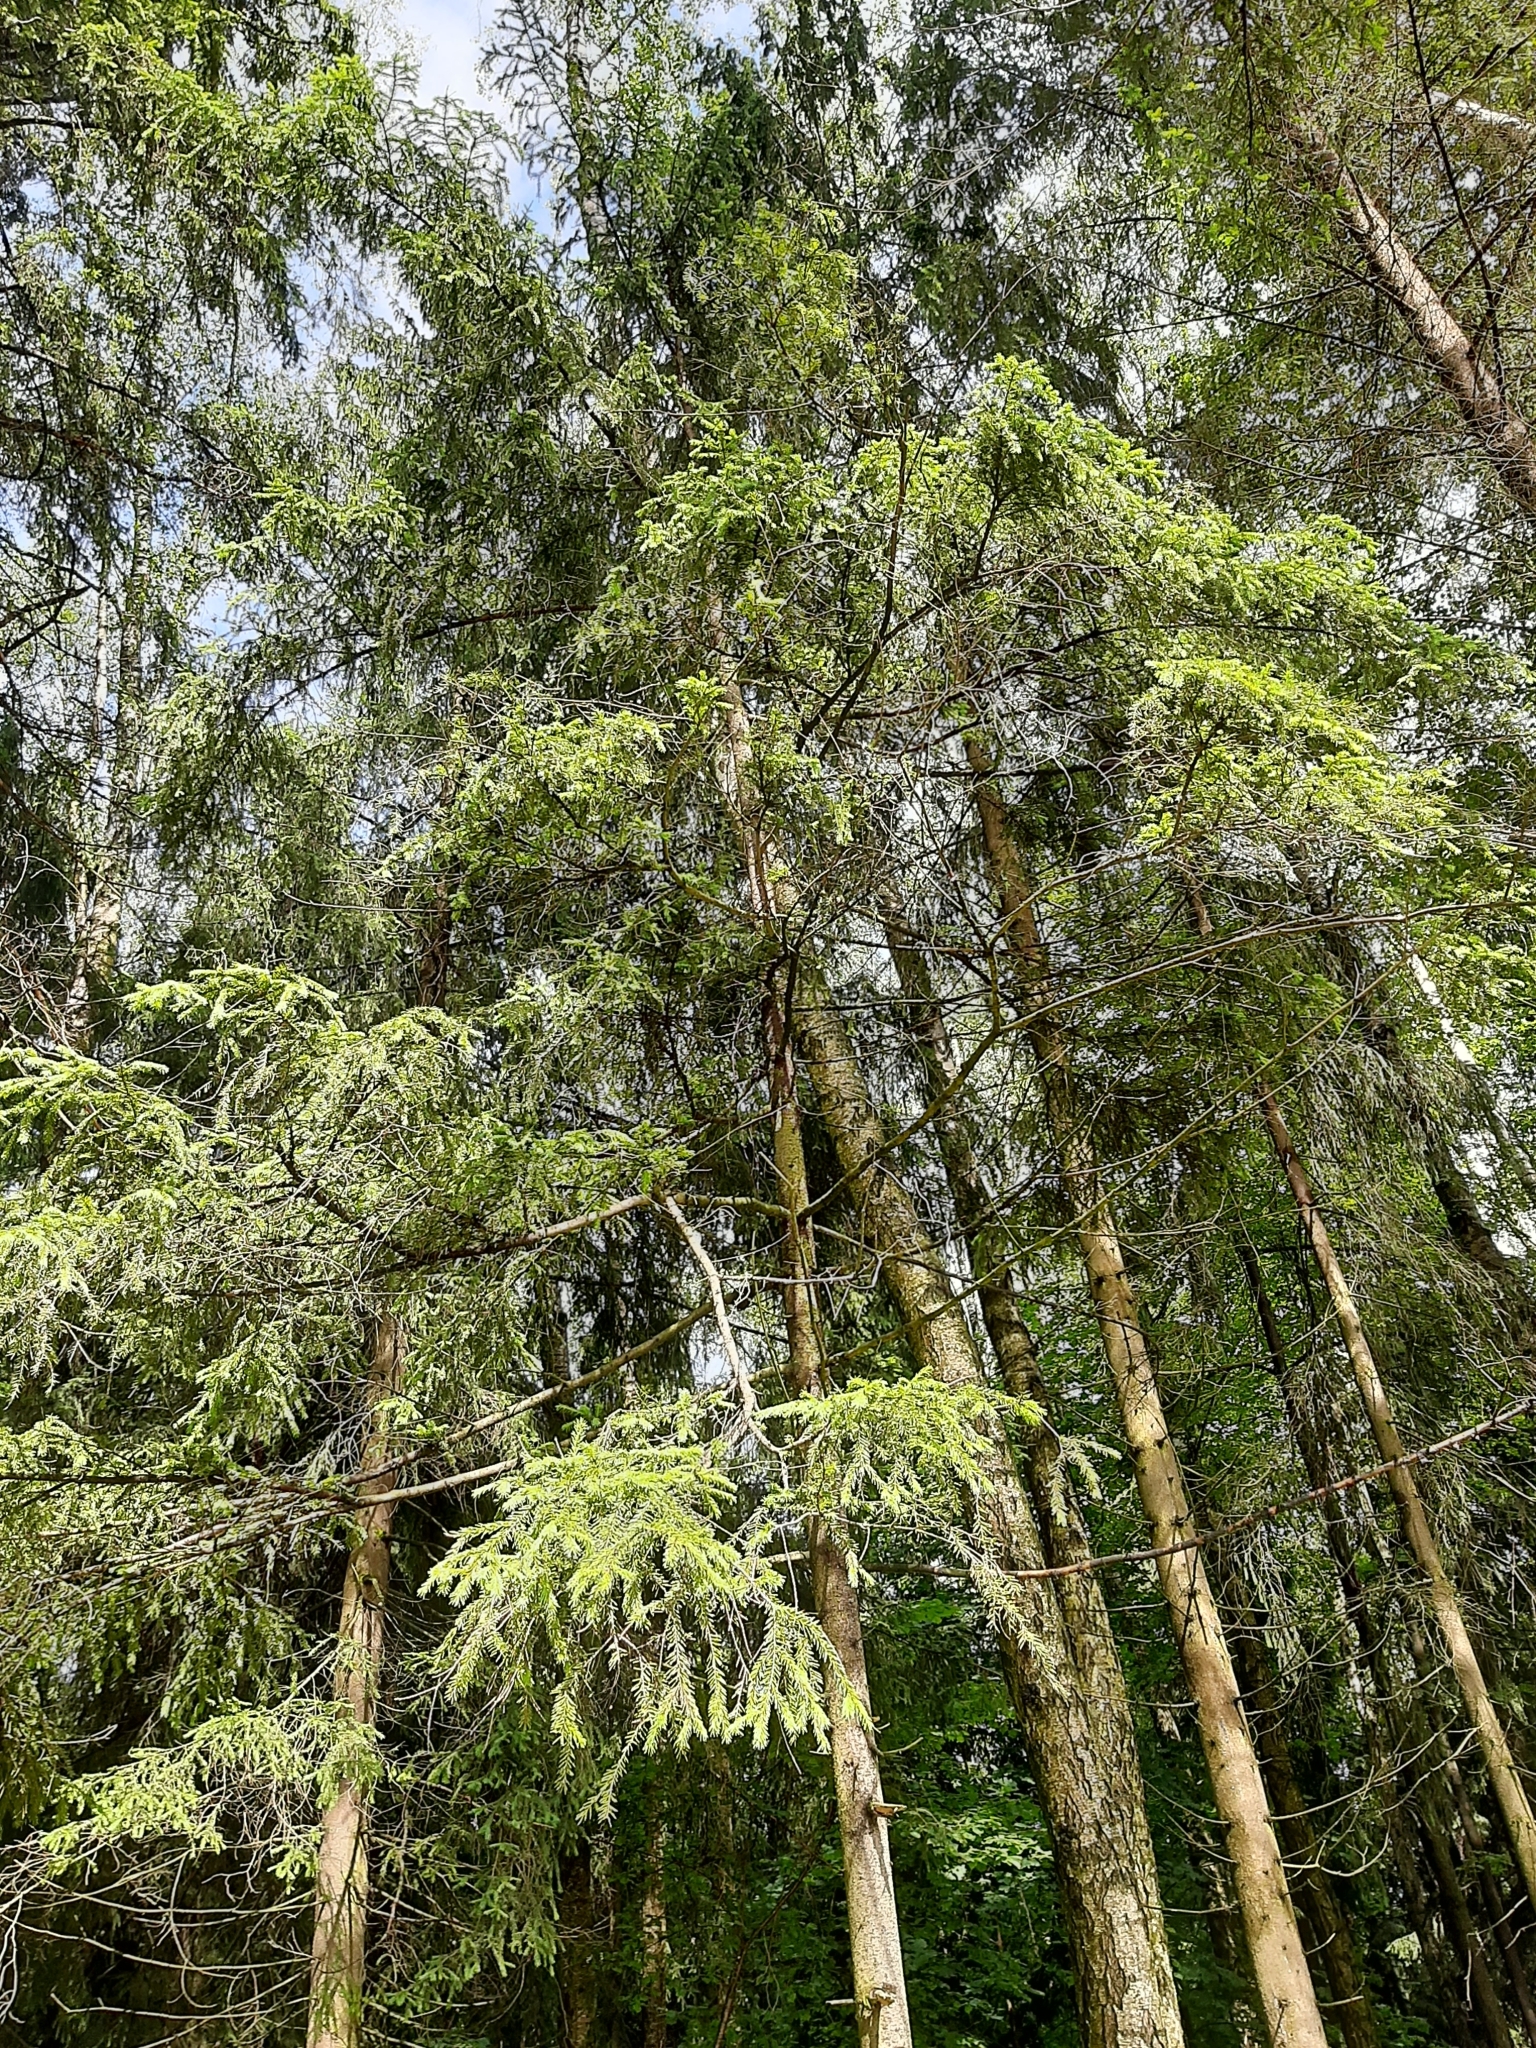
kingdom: Plantae
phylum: Tracheophyta
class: Pinopsida
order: Pinales
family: Pinaceae
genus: Picea
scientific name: Picea abies
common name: Norway spruce
